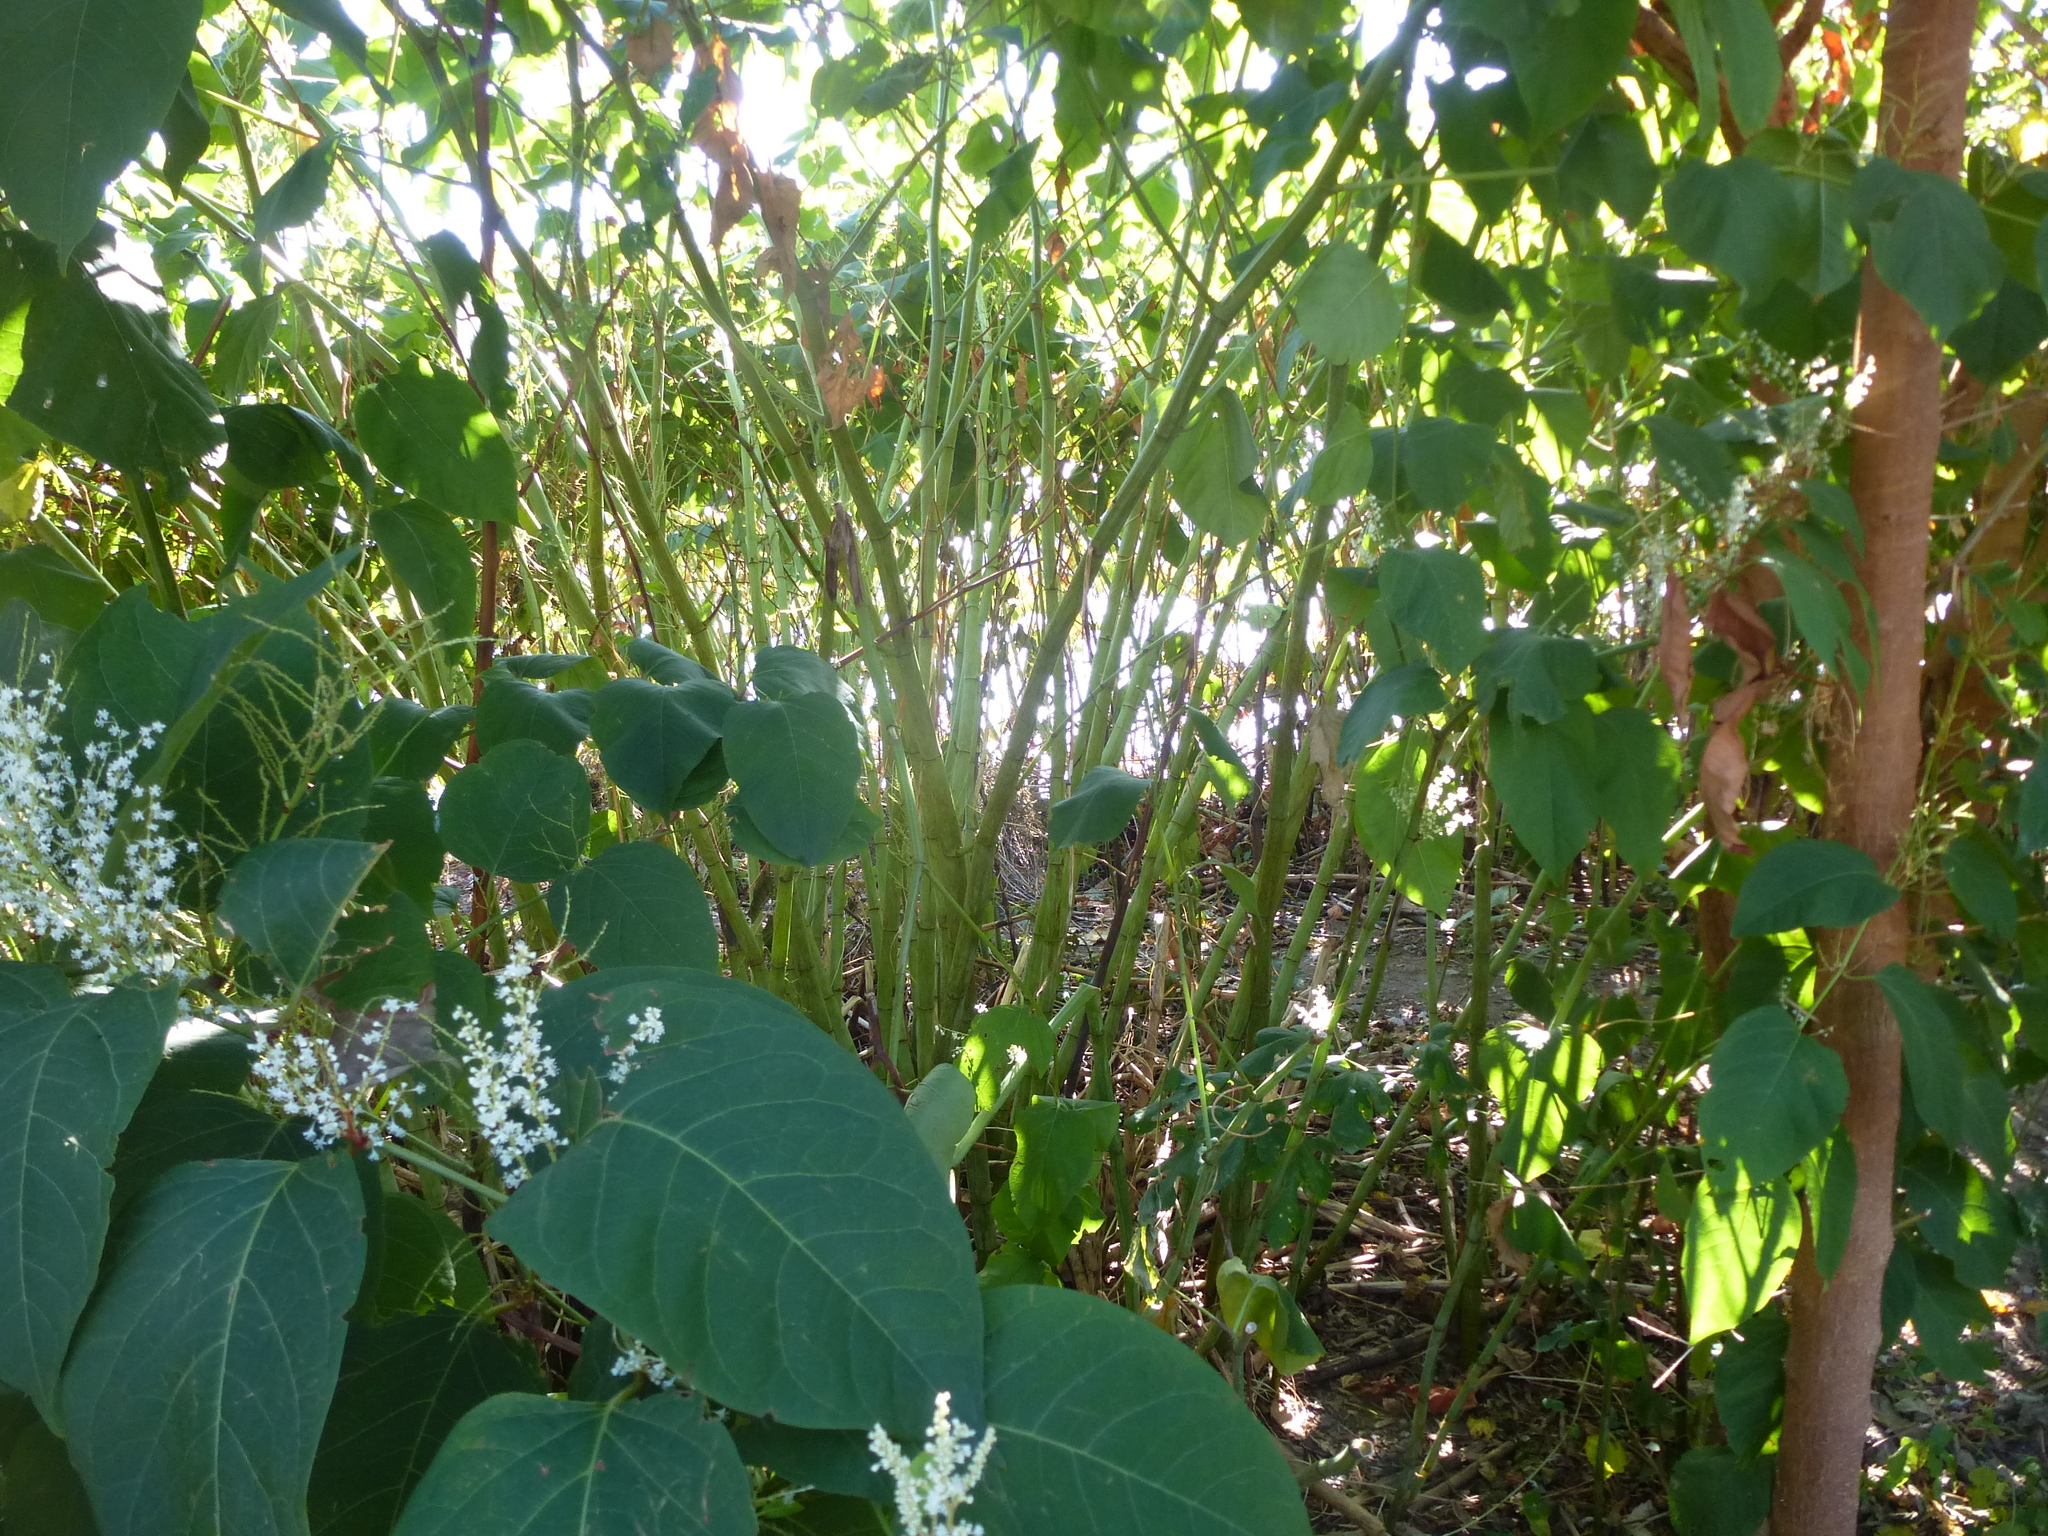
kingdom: Plantae
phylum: Tracheophyta
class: Magnoliopsida
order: Caryophyllales
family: Polygonaceae
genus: Reynoutria
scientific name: Reynoutria japonica
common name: Japanese knotweed
